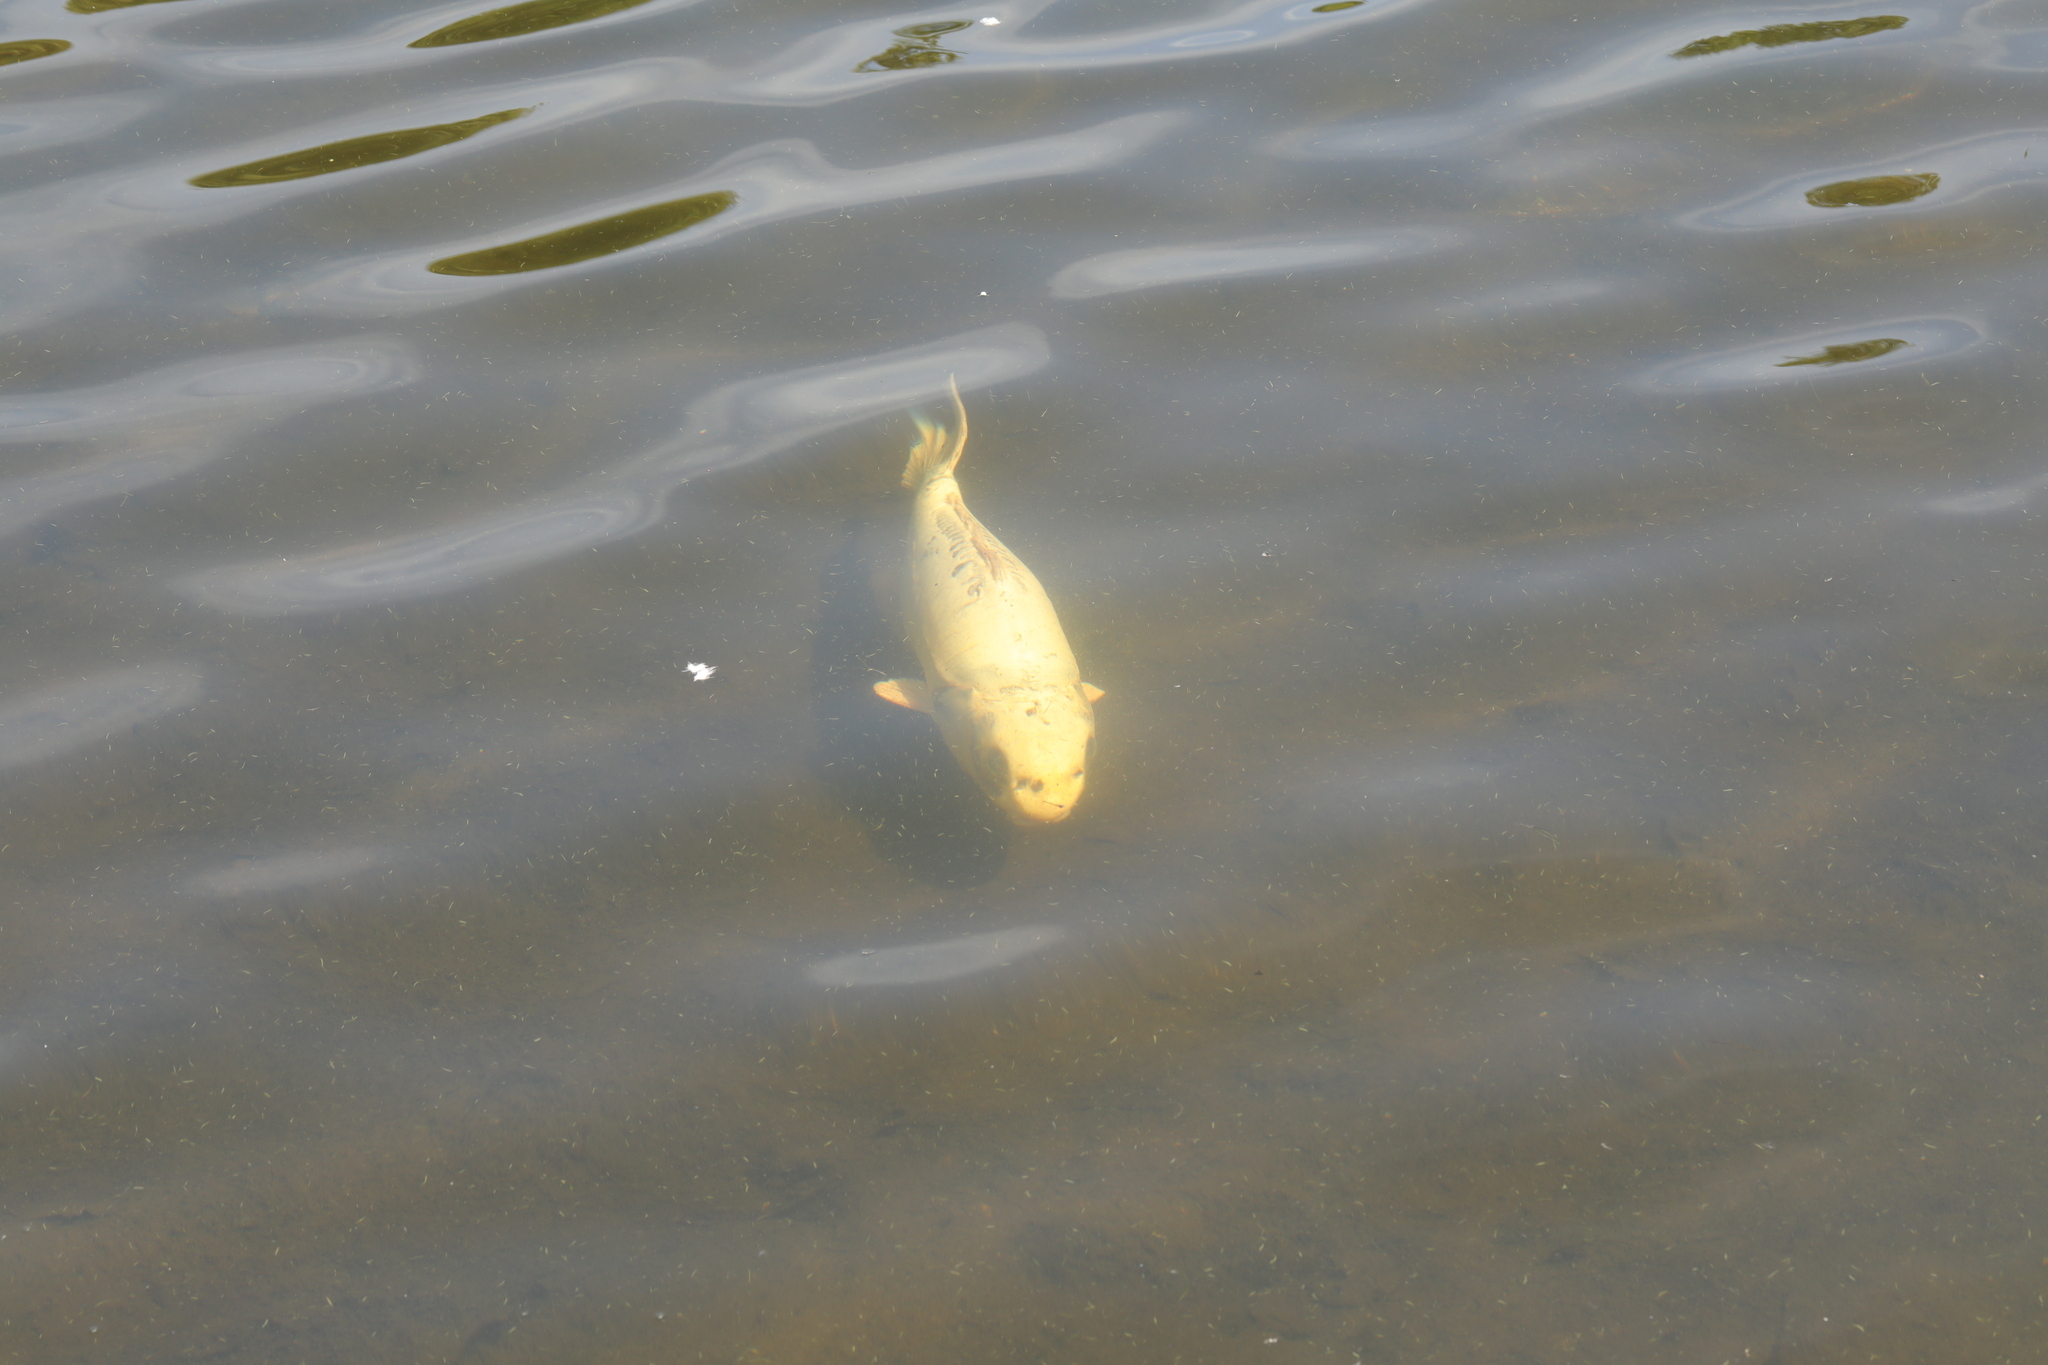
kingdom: Animalia
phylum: Chordata
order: Cypriniformes
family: Cyprinidae
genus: Cyprinus
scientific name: Cyprinus rubrofuscus
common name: Koi
